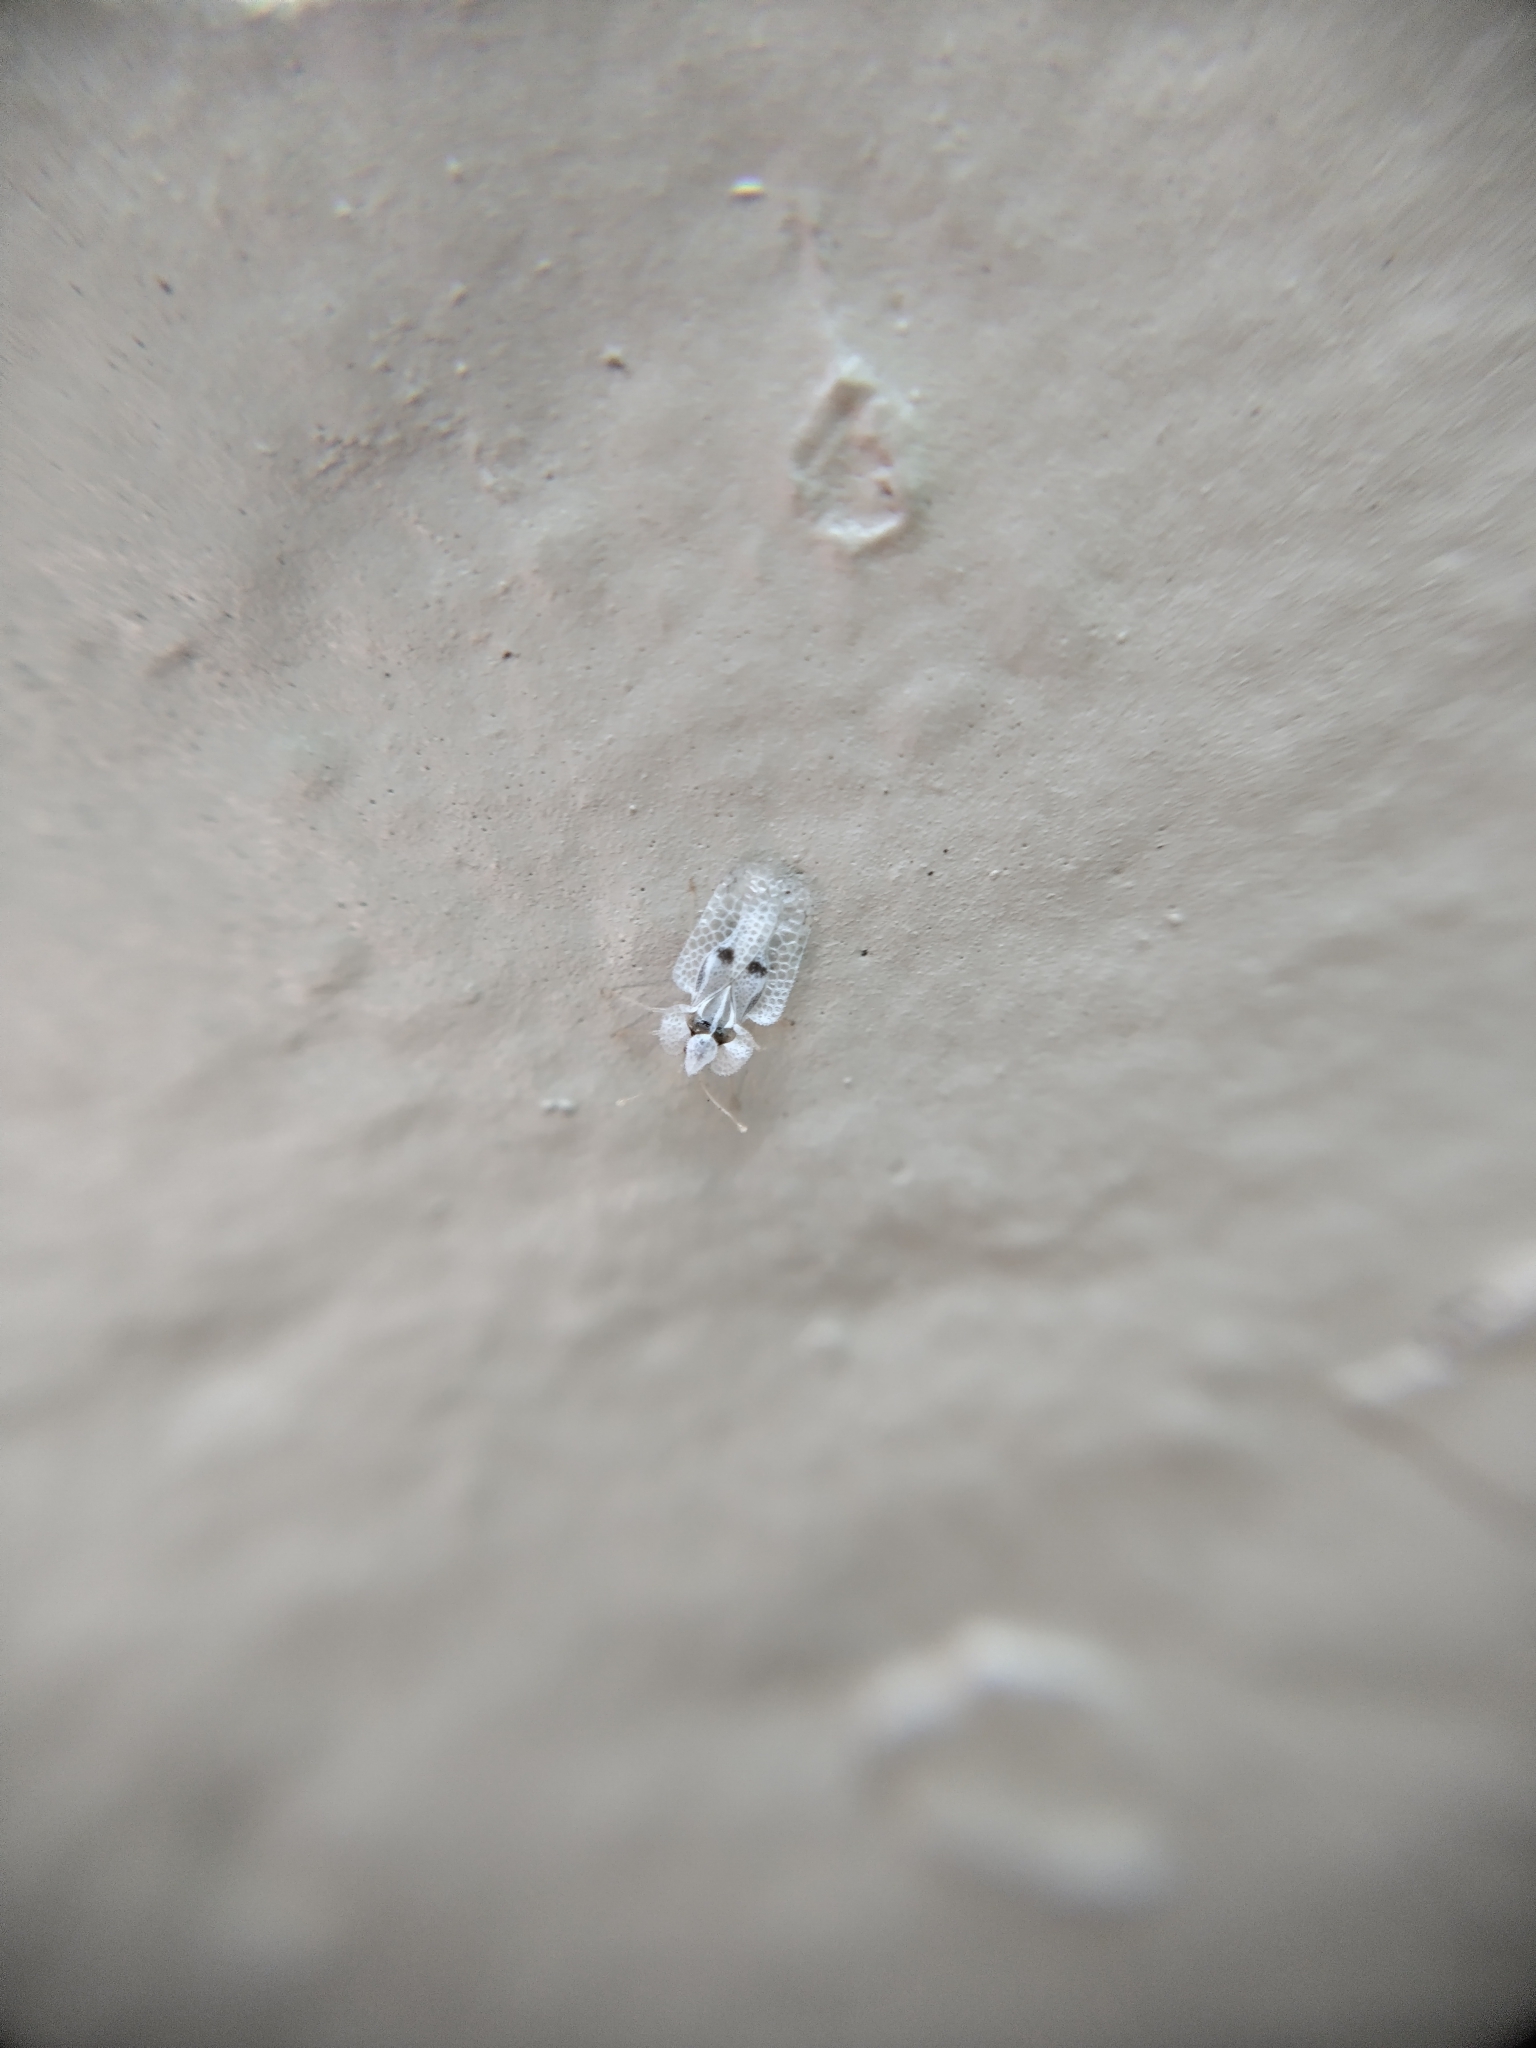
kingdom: Animalia
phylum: Arthropoda
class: Insecta
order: Hemiptera
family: Tingidae
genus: Corythucha
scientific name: Corythucha ciliata
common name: Sycamore lace bug
